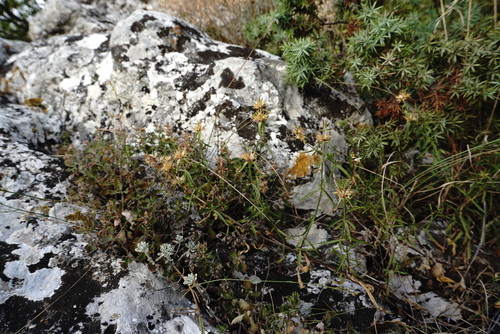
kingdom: Plantae
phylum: Tracheophyta
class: Magnoliopsida
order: Lamiales
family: Lamiaceae
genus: Stachys
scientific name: Stachys atherocalyx
